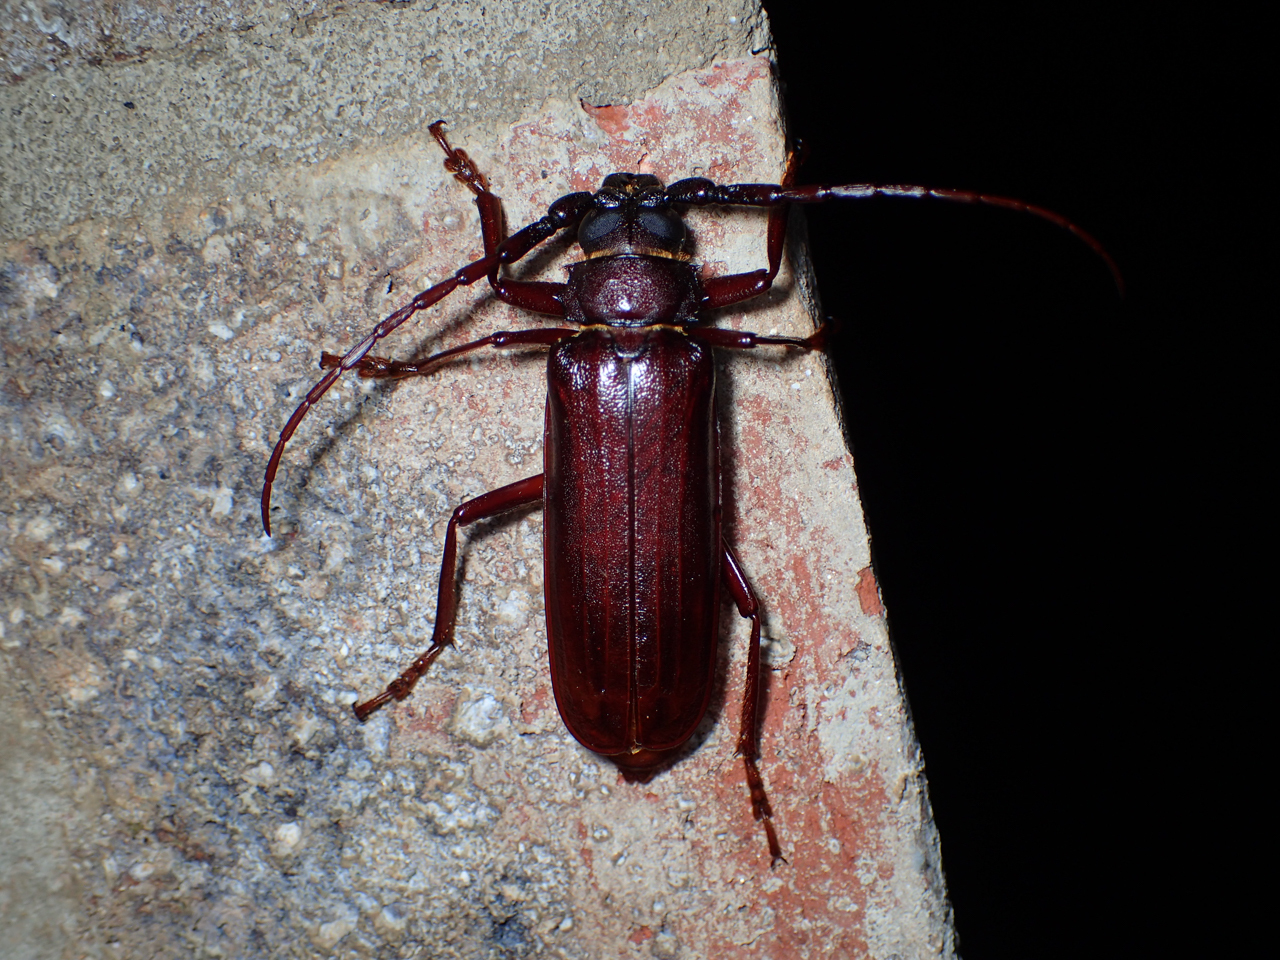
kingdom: Animalia
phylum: Arthropoda
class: Insecta
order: Coleoptera
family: Cerambycidae
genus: Orthosoma
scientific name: Orthosoma brunneum
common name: Brown prionid beetle
